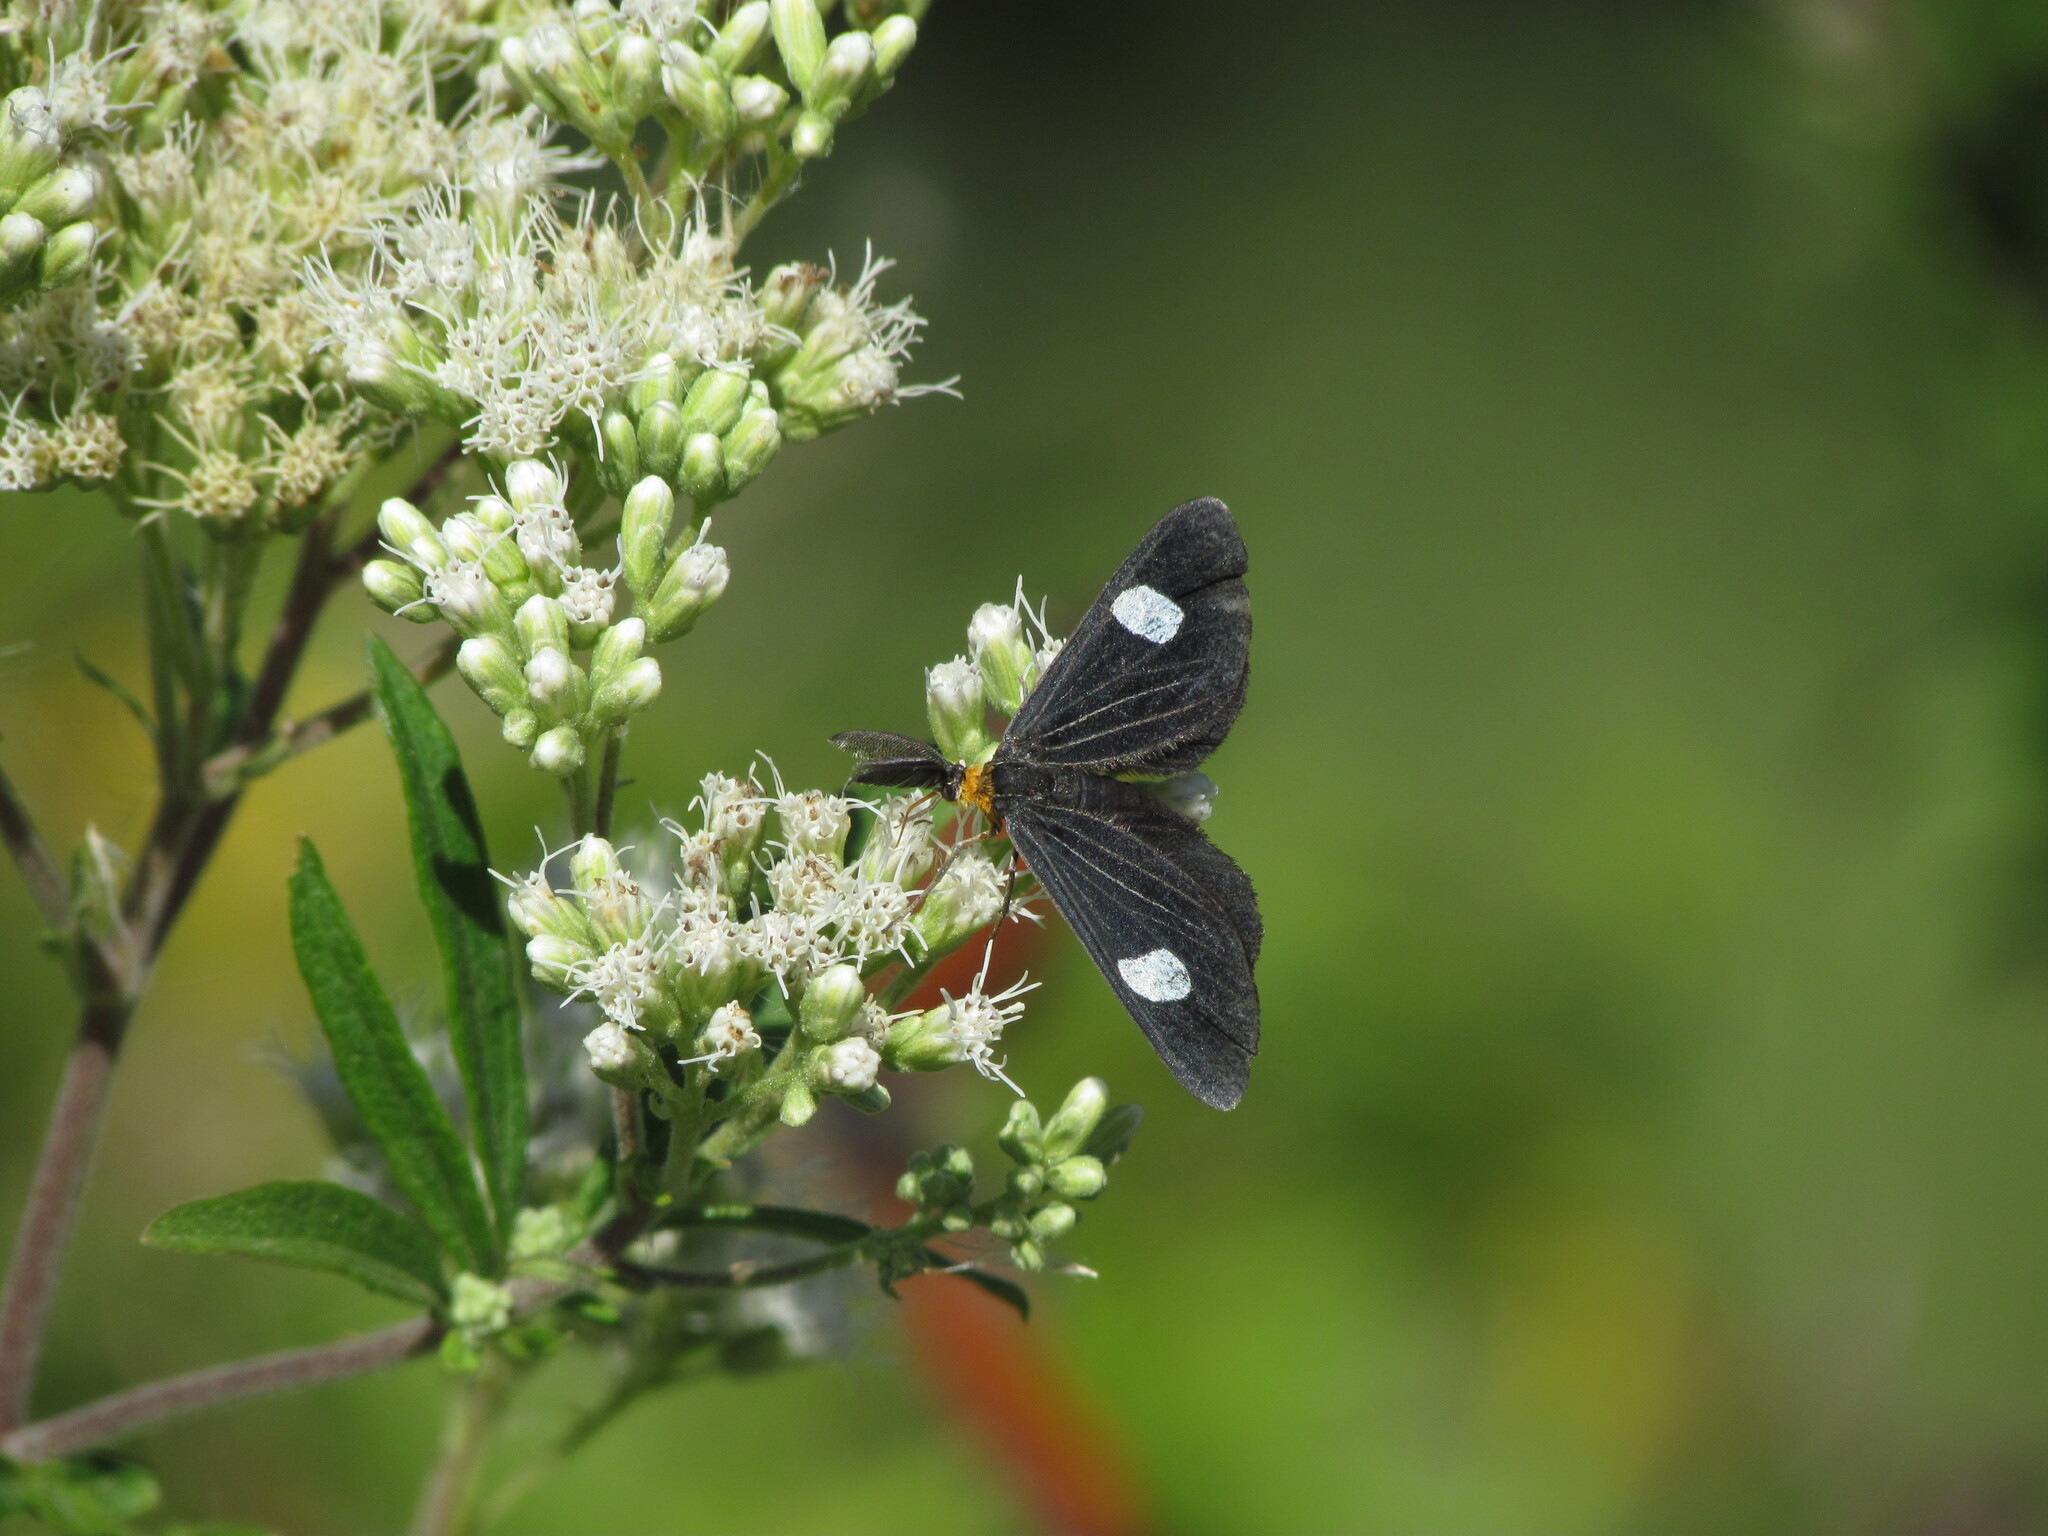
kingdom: Animalia
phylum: Arthropoda
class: Insecta
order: Lepidoptera
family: Geometridae
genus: Melanchroia
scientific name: Melanchroia aterea
